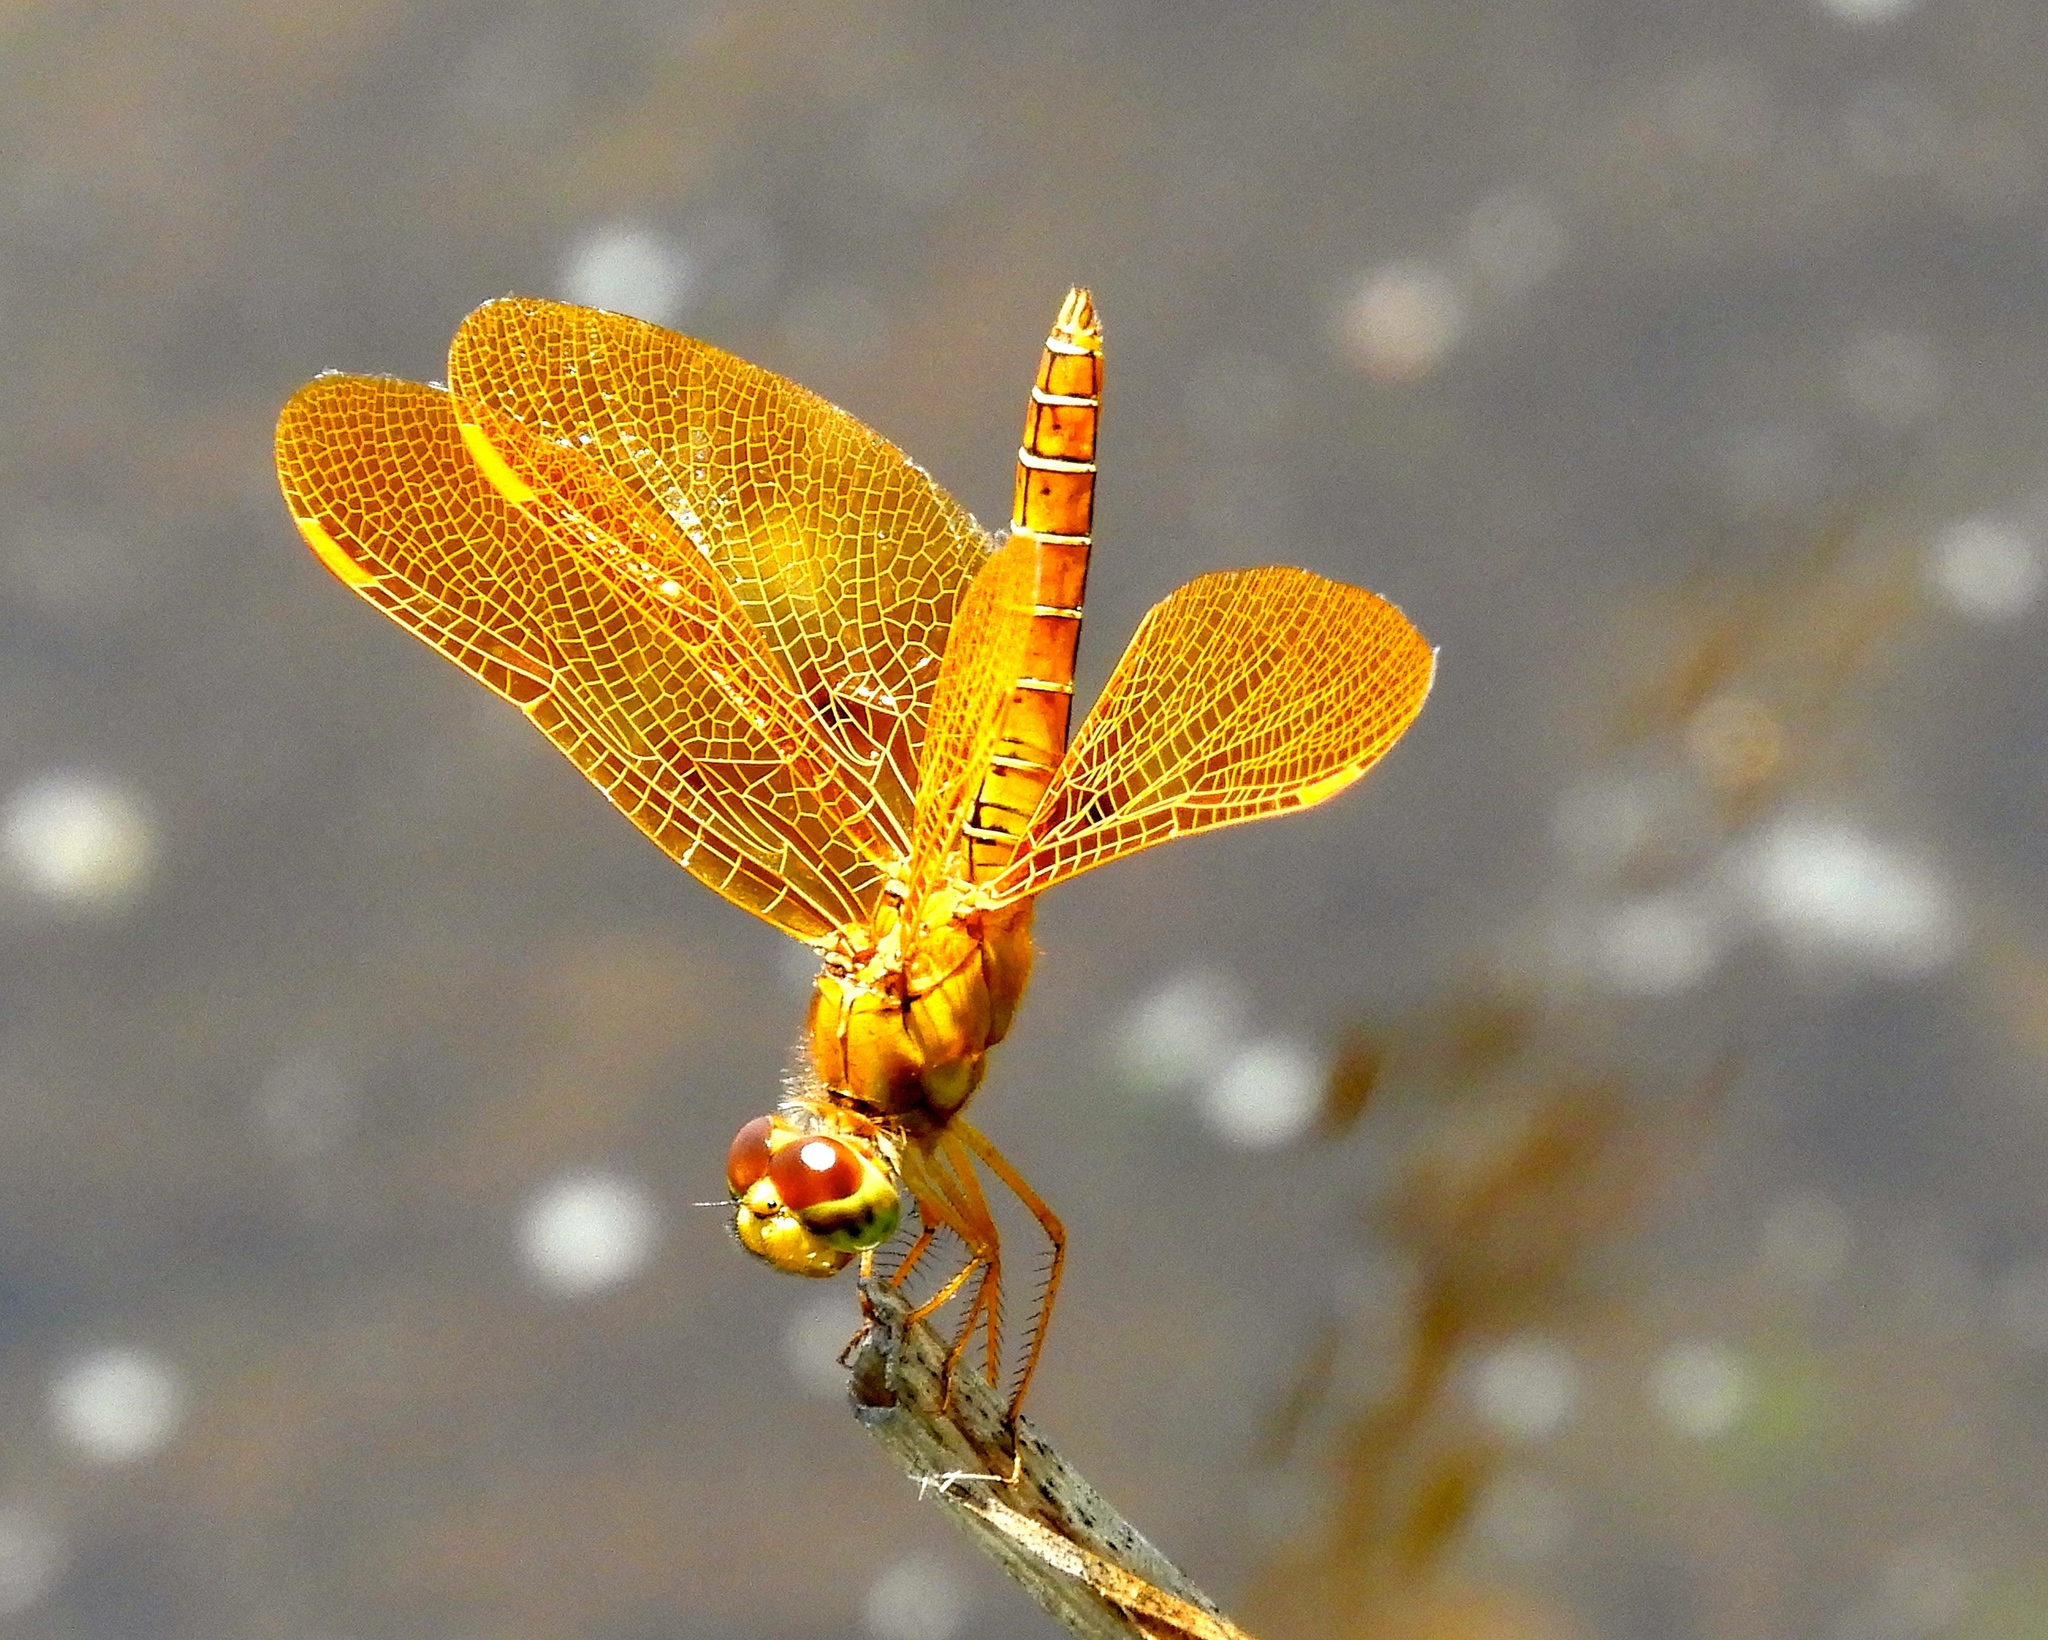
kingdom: Animalia
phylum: Arthropoda
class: Insecta
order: Odonata
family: Libellulidae
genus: Perithemis
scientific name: Perithemis intensa
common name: Mexican amberwing
